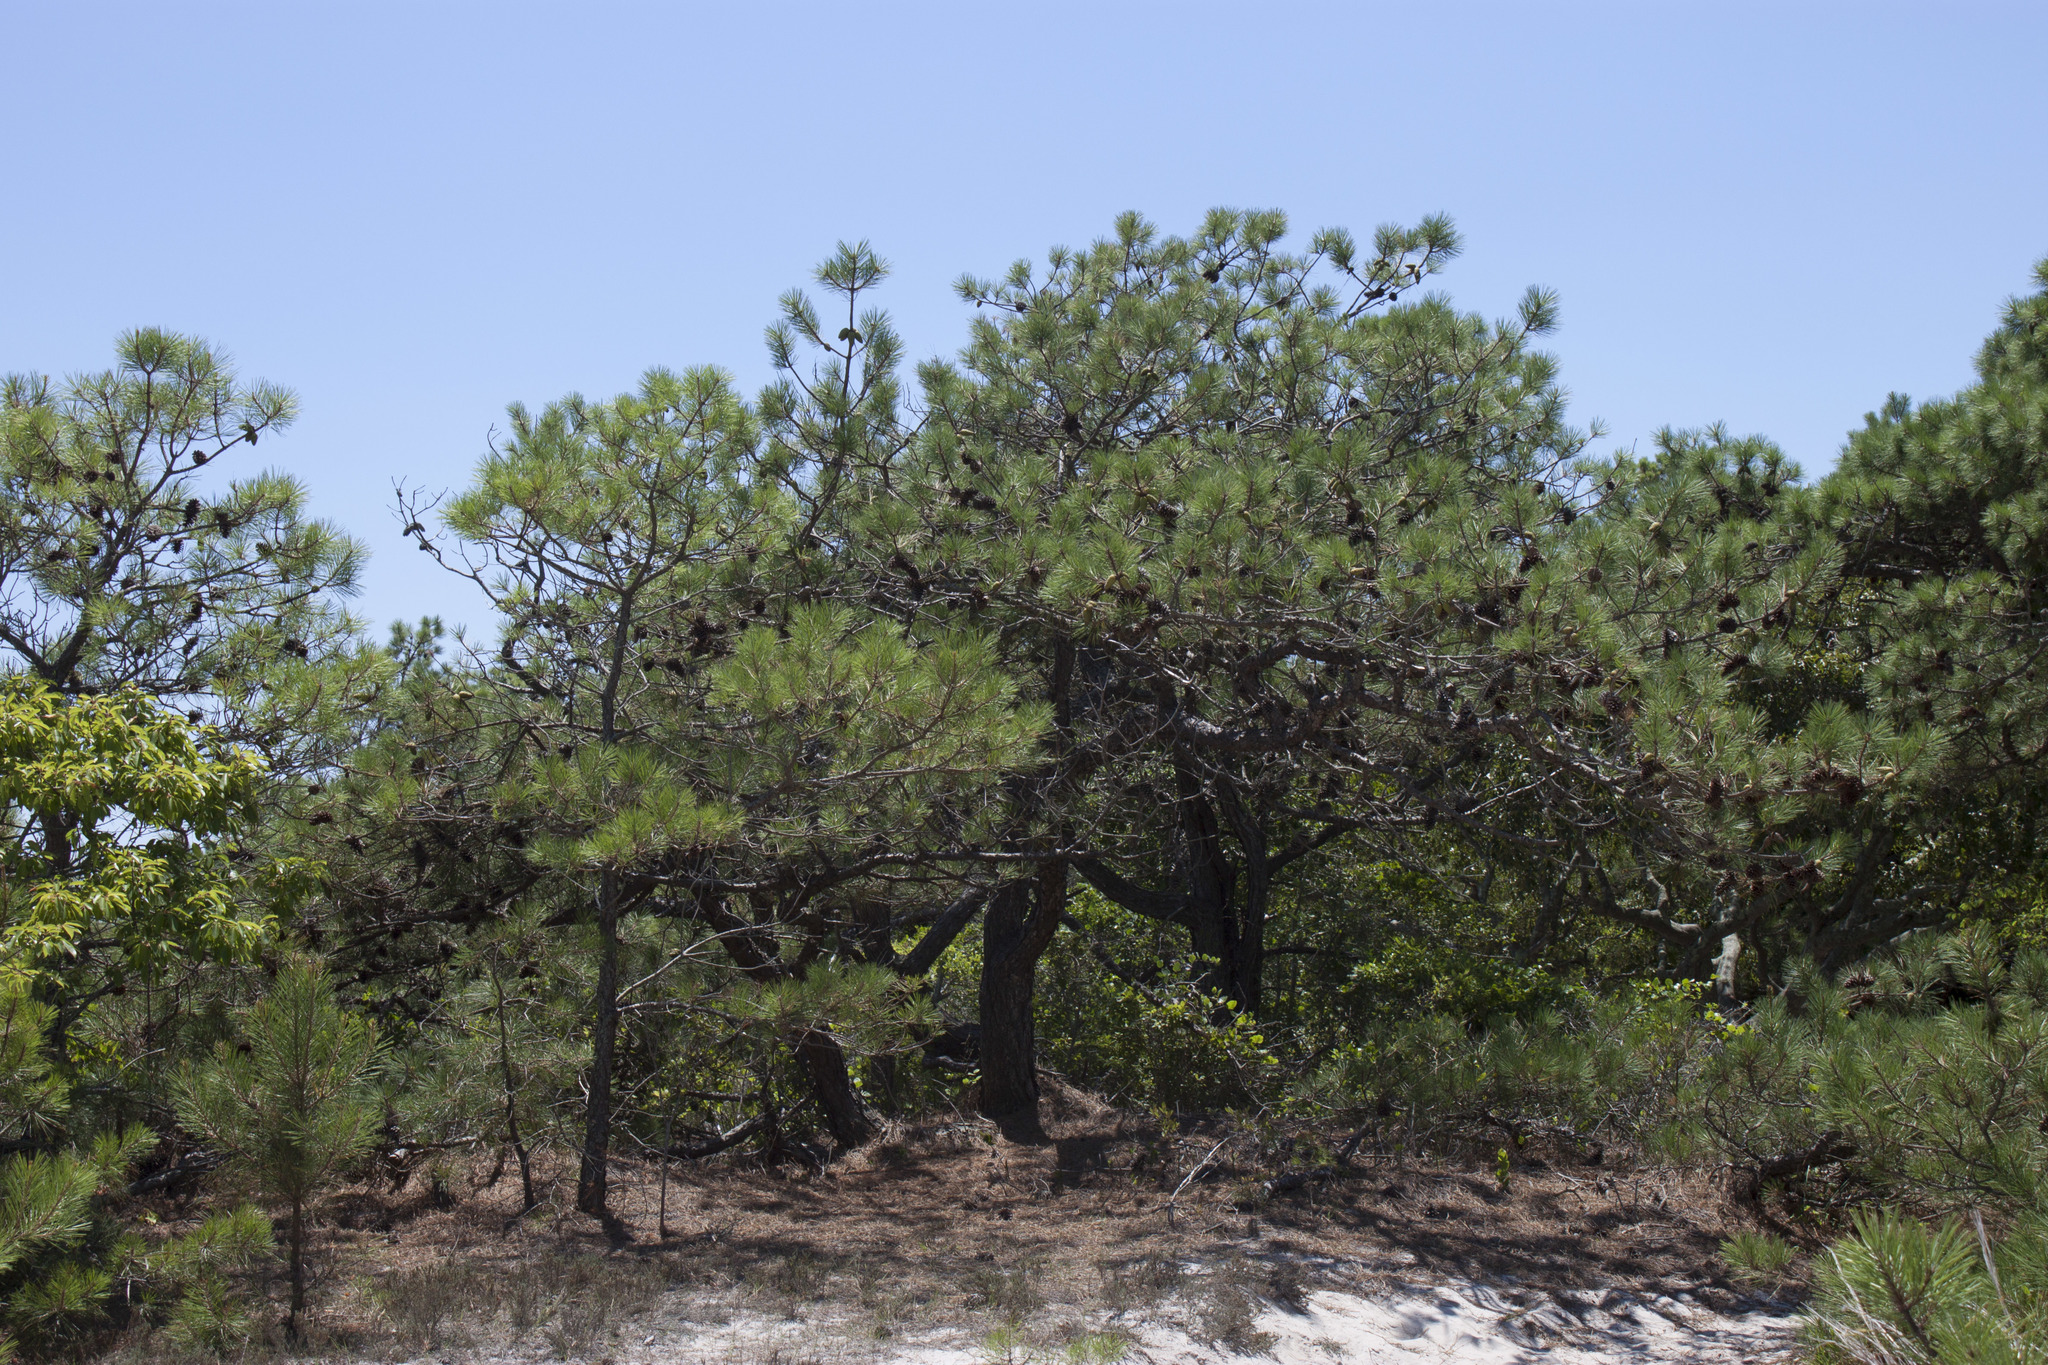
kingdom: Plantae
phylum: Tracheophyta
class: Pinopsida
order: Pinales
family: Pinaceae
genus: Pinus
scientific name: Pinus taeda
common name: Loblolly pine
